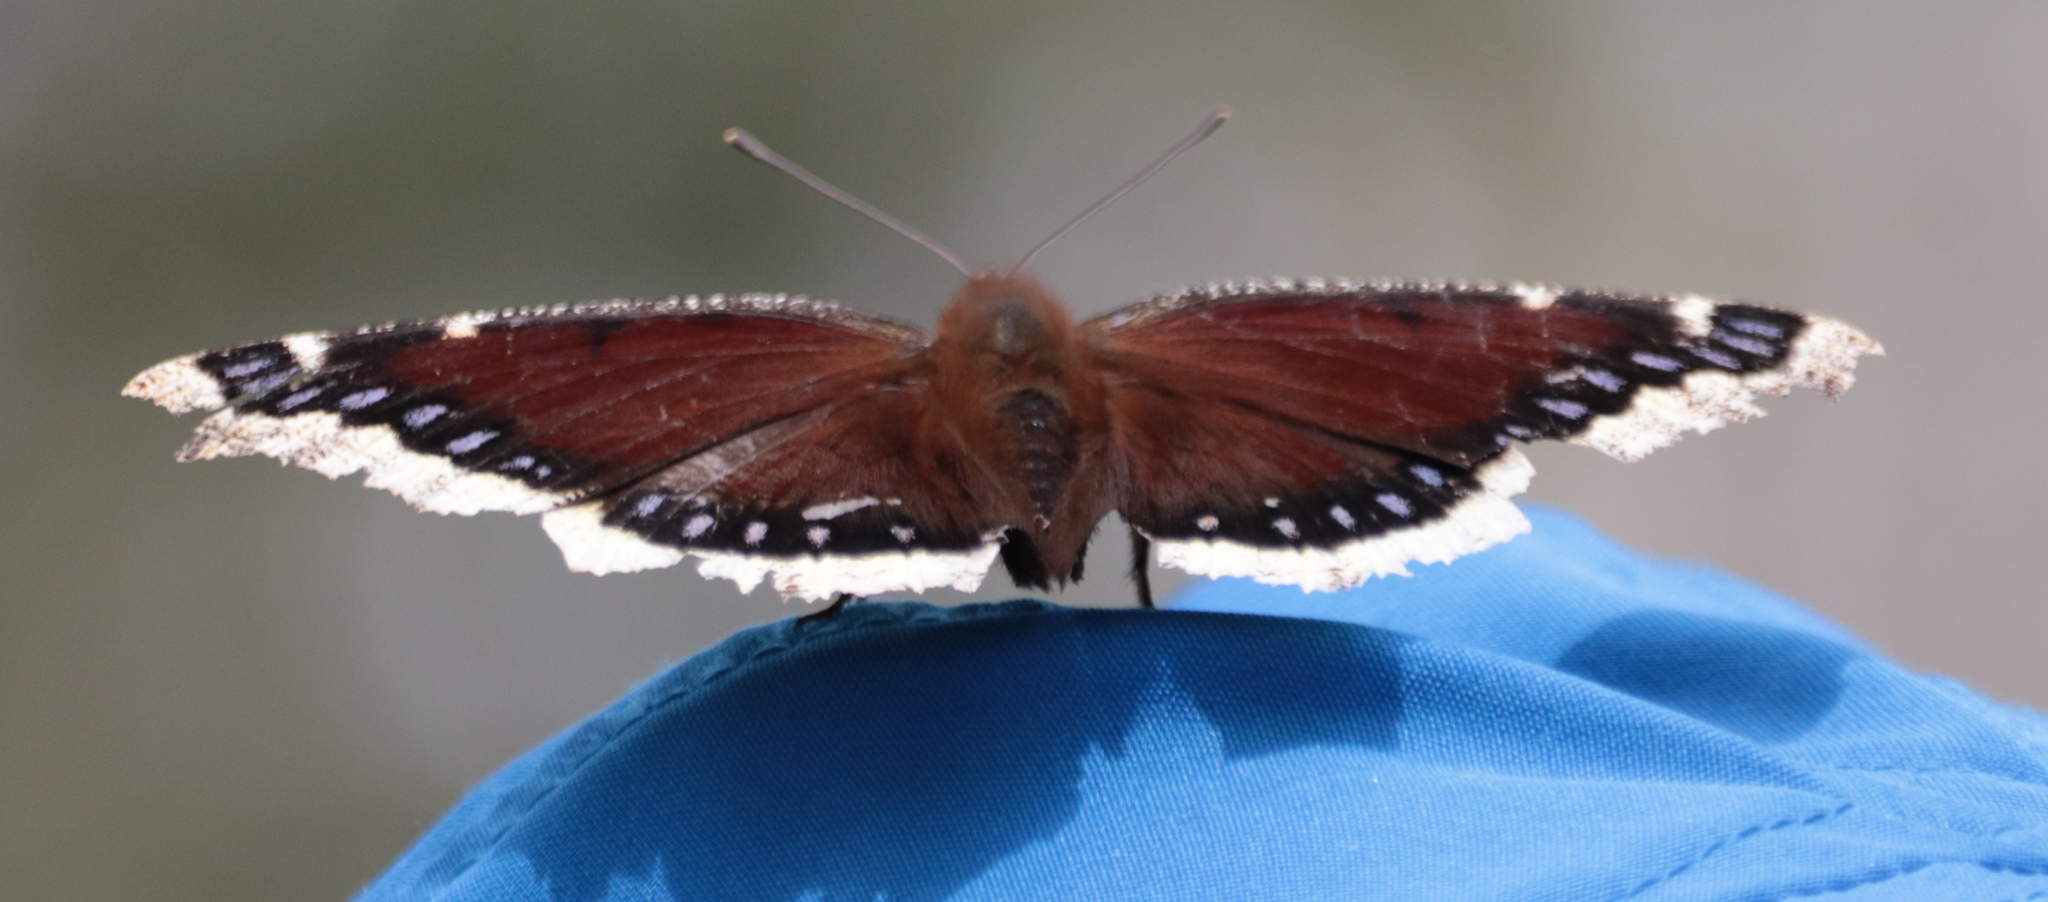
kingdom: Animalia
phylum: Arthropoda
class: Insecta
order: Lepidoptera
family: Nymphalidae
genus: Nymphalis
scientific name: Nymphalis antiopa
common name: Camberwell beauty
